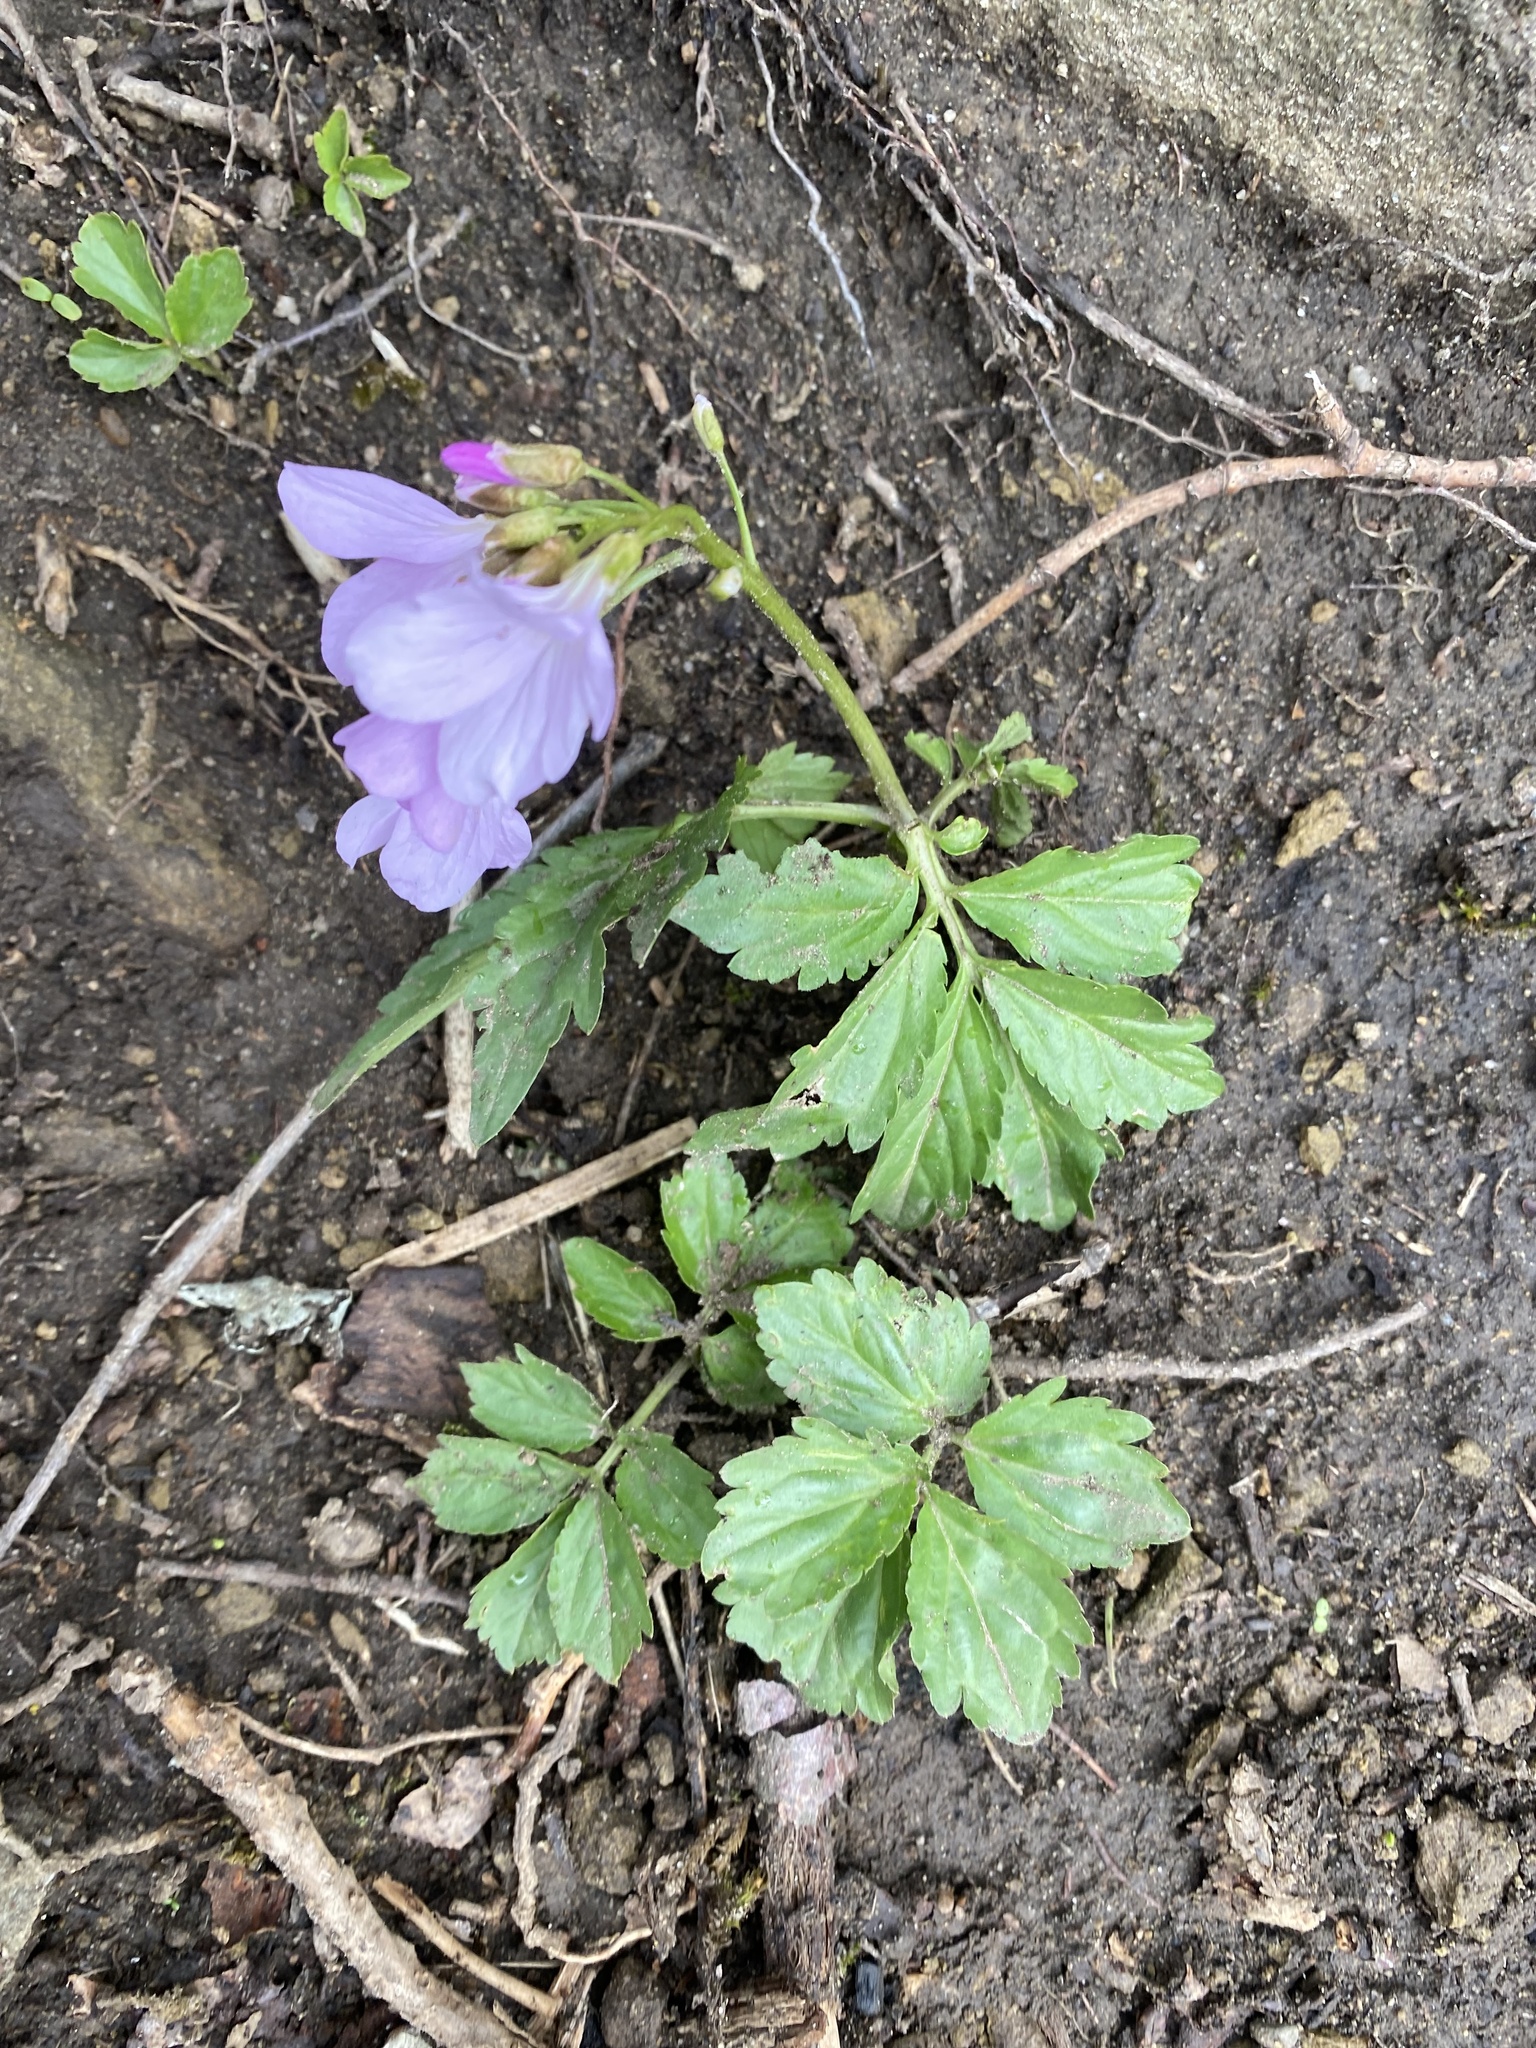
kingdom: Plantae
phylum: Tracheophyta
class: Magnoliopsida
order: Brassicales
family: Brassicaceae
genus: Cardamine
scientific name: Cardamine quinquefolia
